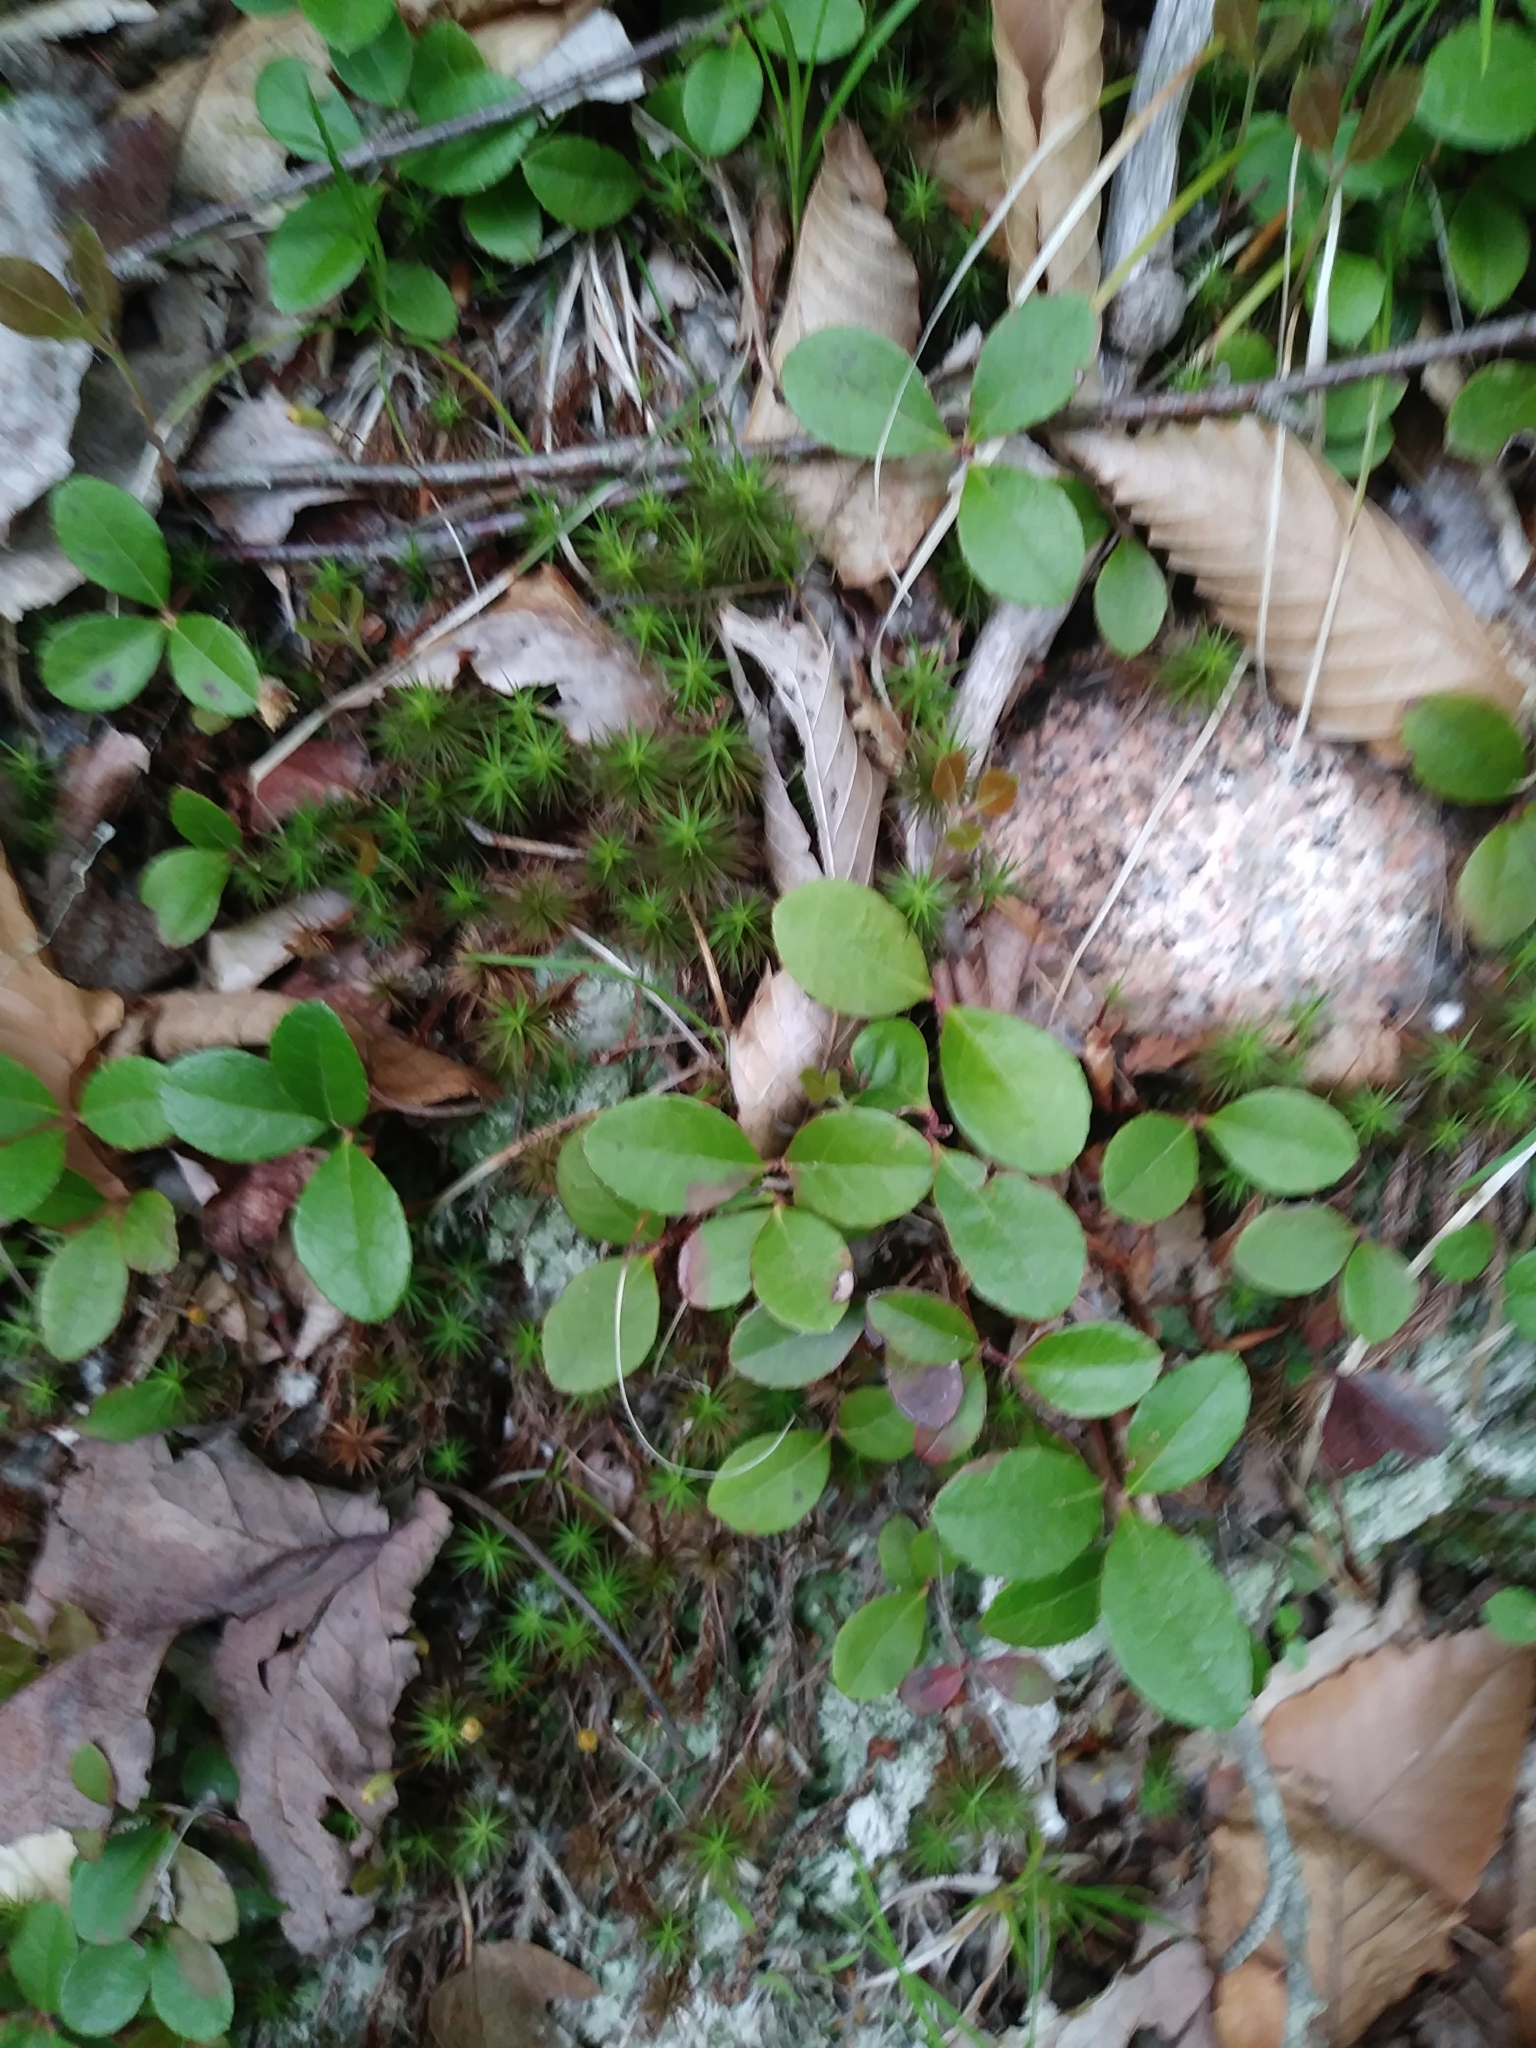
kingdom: Plantae
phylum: Tracheophyta
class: Magnoliopsida
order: Ericales
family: Ericaceae
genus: Gaultheria
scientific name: Gaultheria procumbens
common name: Checkerberry
